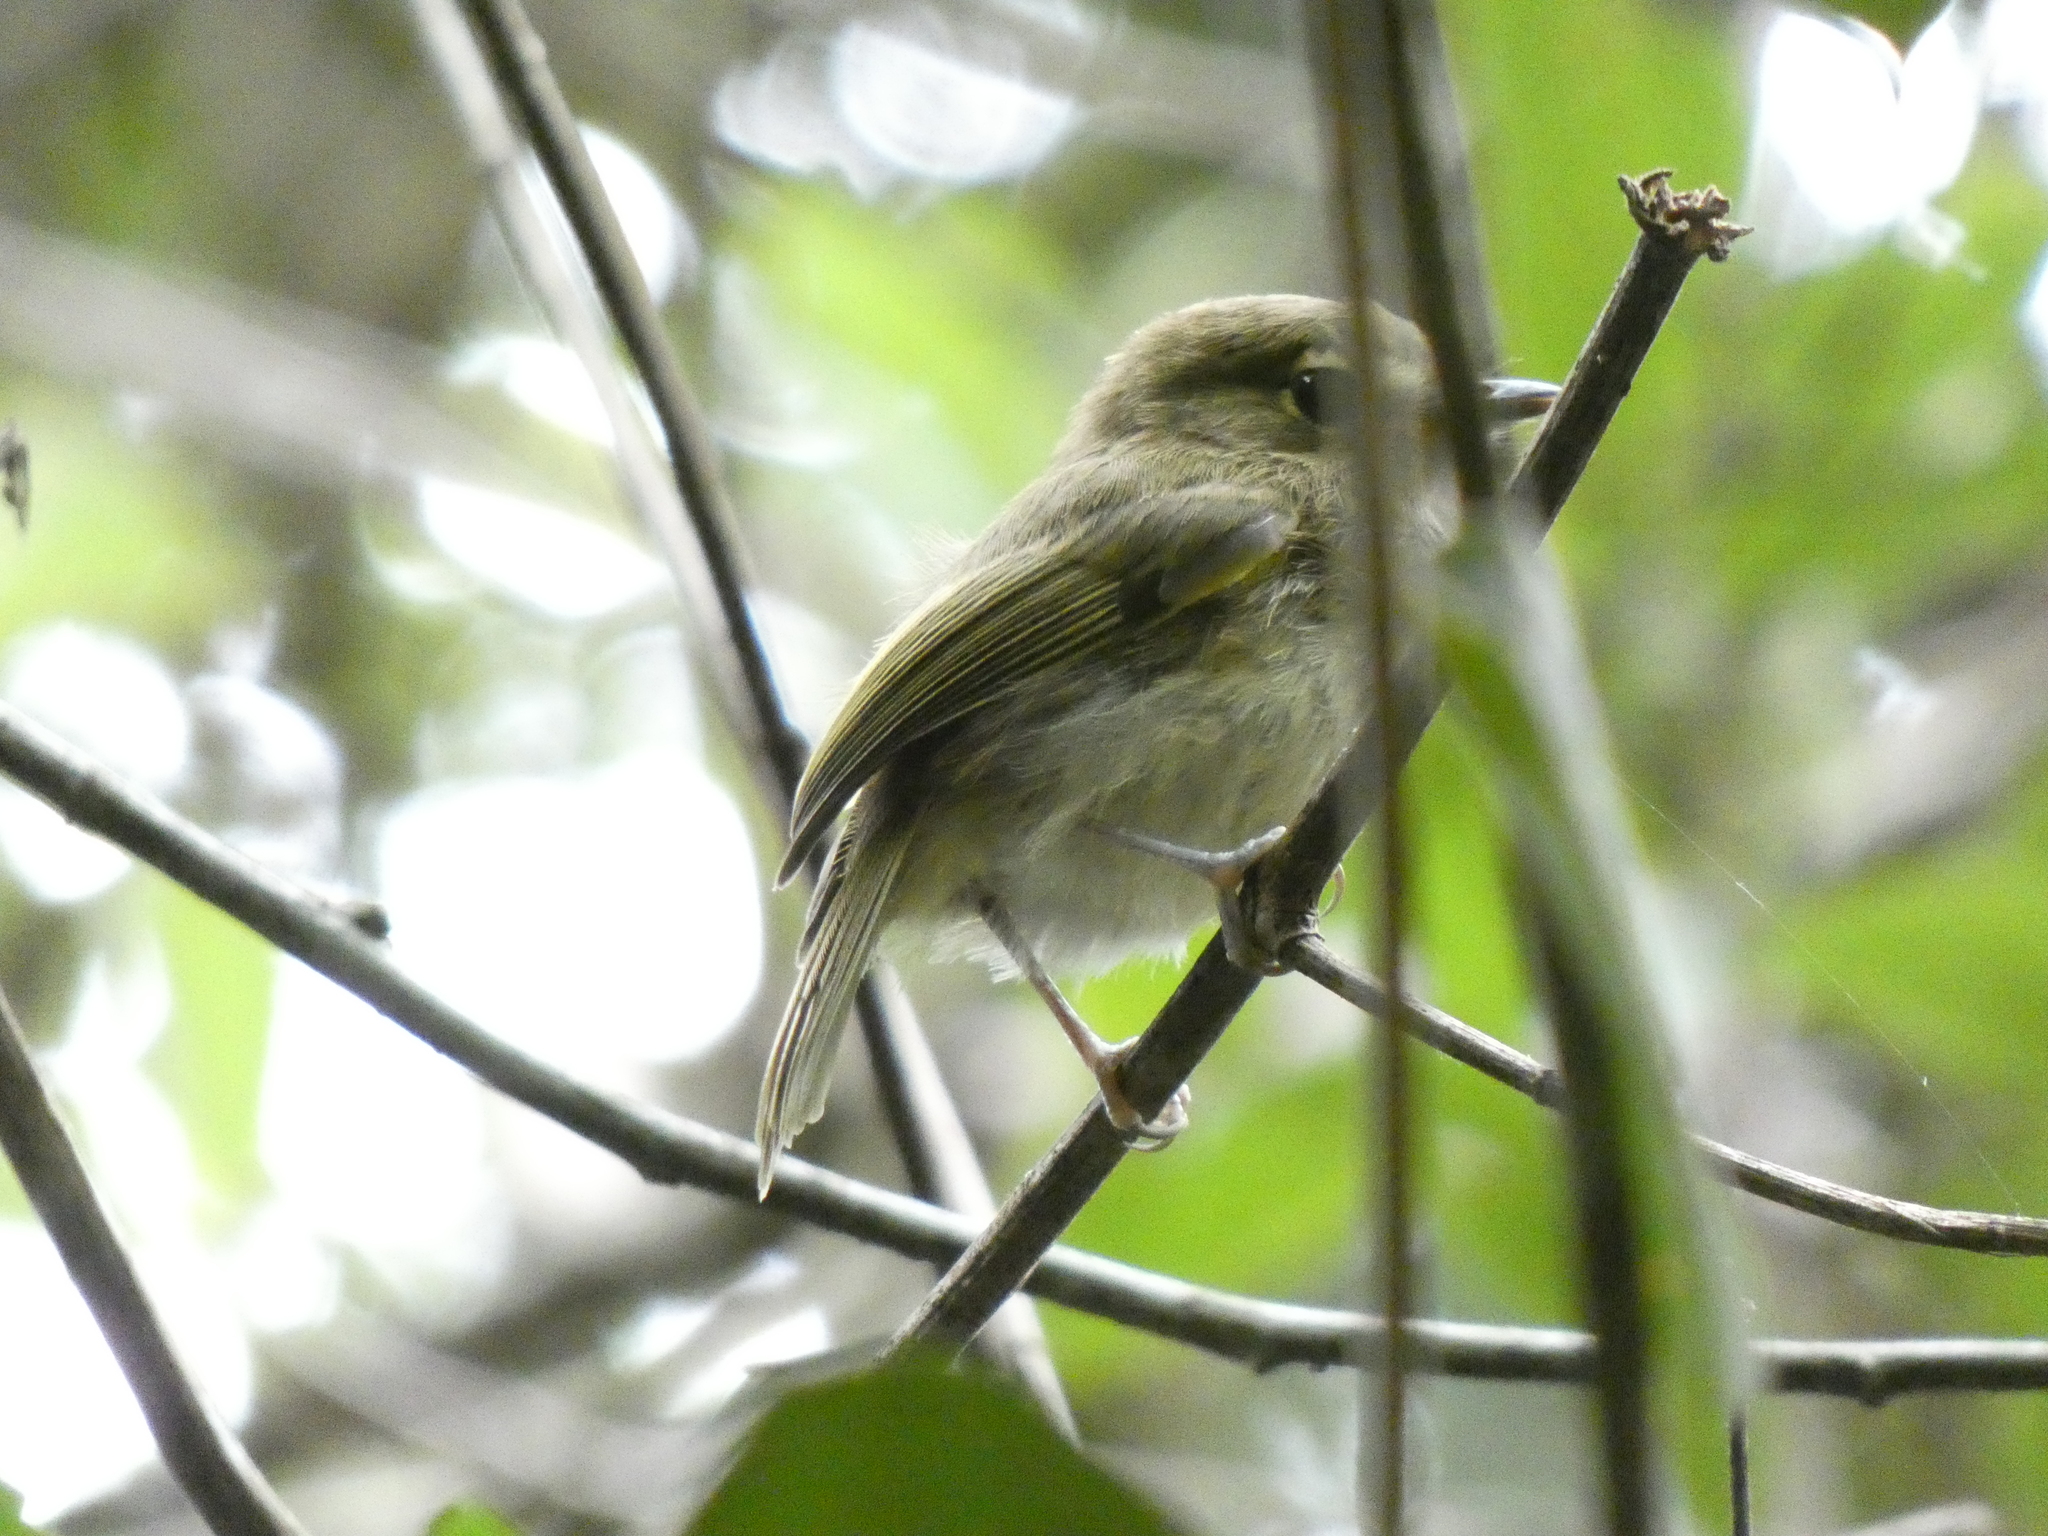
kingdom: Animalia
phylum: Chordata
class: Aves
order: Passeriformes
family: Tyrannidae
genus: Hemitriccus
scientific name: Hemitriccus nidipendulus
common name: Hangnest tody-tyrant
